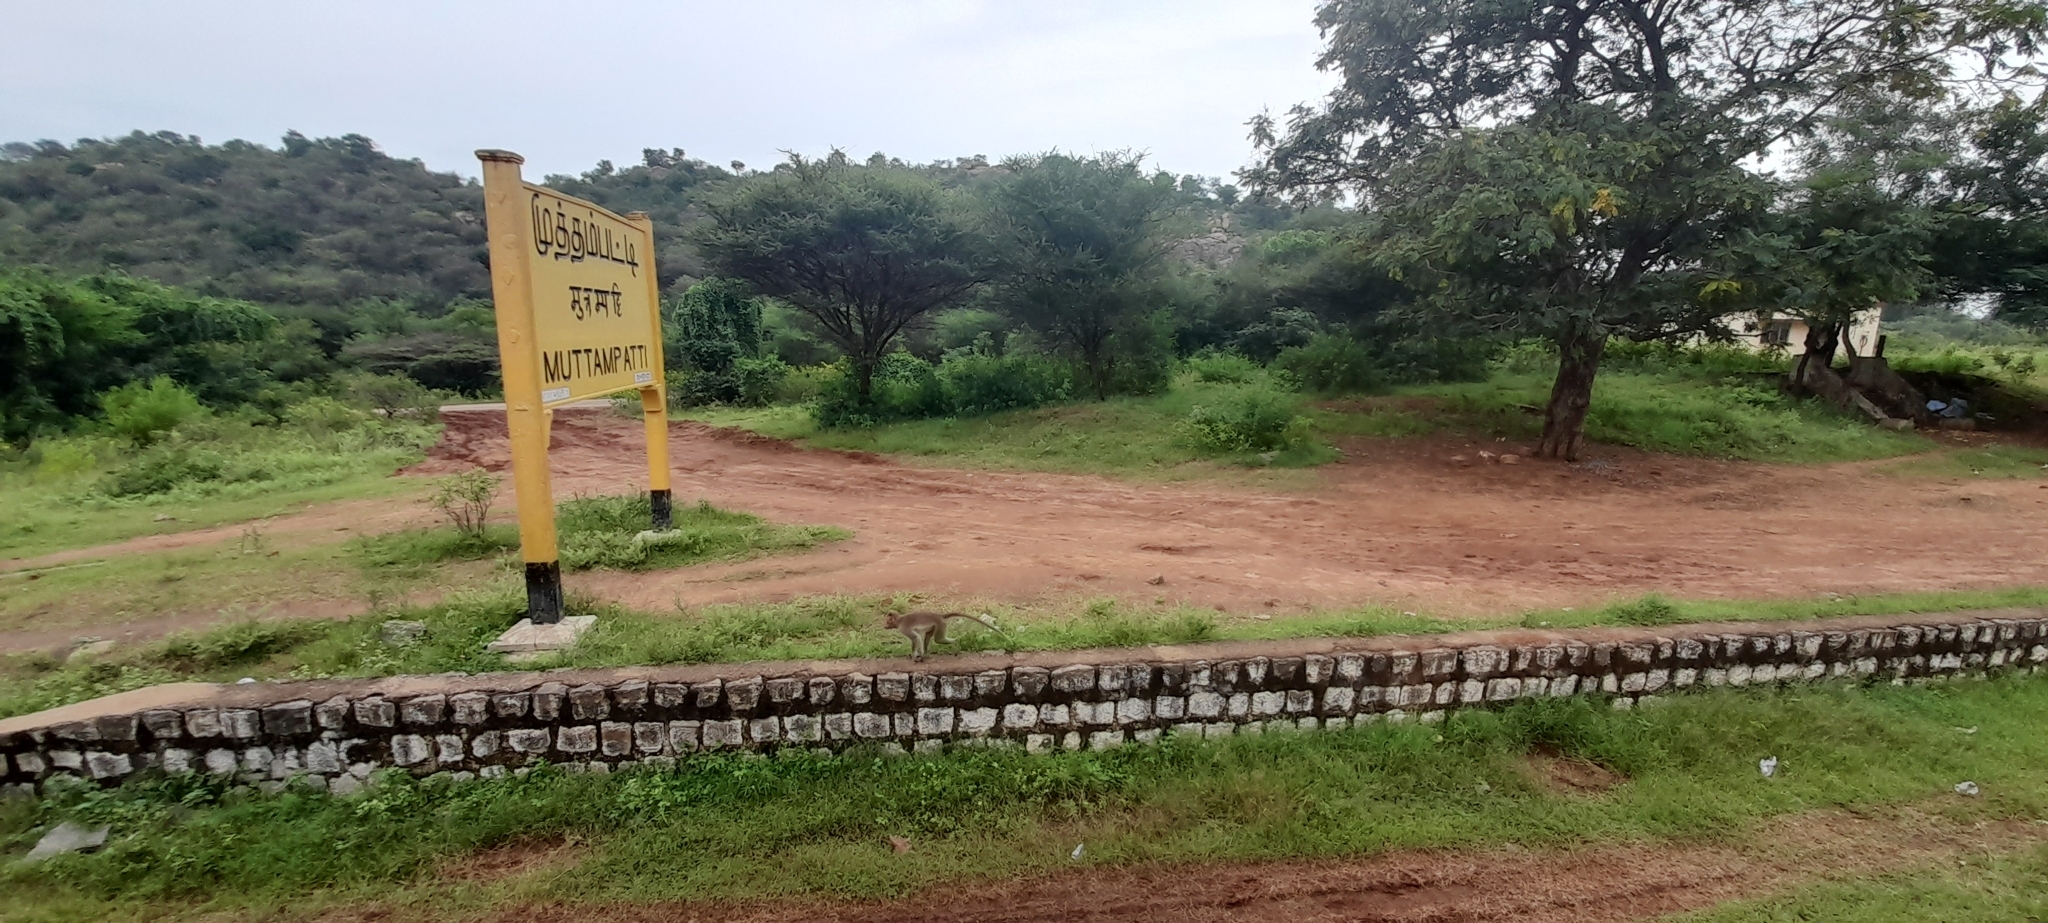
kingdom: Animalia
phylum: Chordata
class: Mammalia
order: Primates
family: Cercopithecidae
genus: Macaca
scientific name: Macaca radiata
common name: Bonnet macaque
